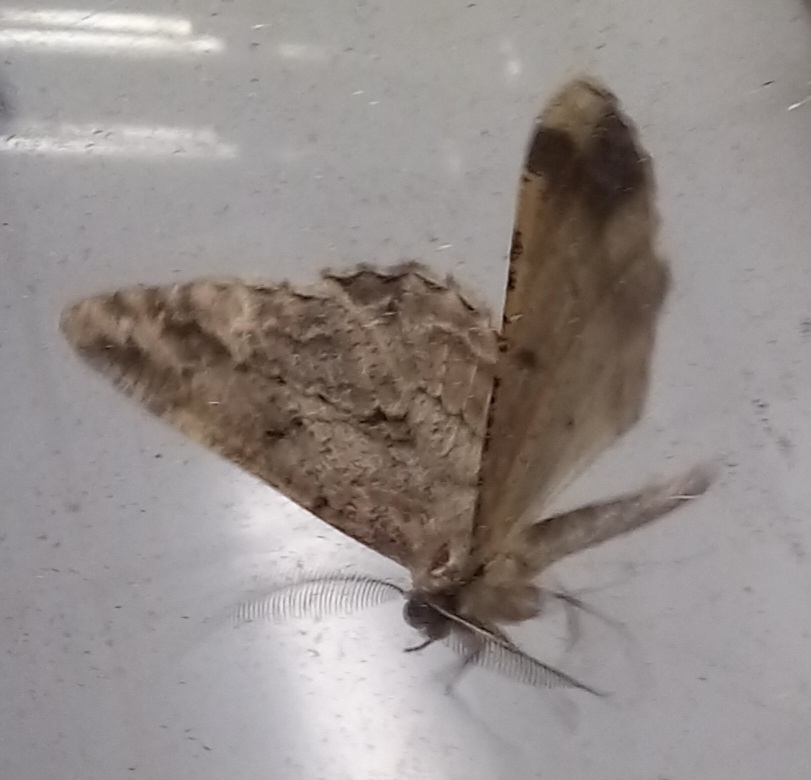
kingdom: Animalia
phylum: Arthropoda
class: Insecta
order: Lepidoptera
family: Geometridae
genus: Peribatodes
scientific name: Peribatodes rhomboidaria
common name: Willow beauty
